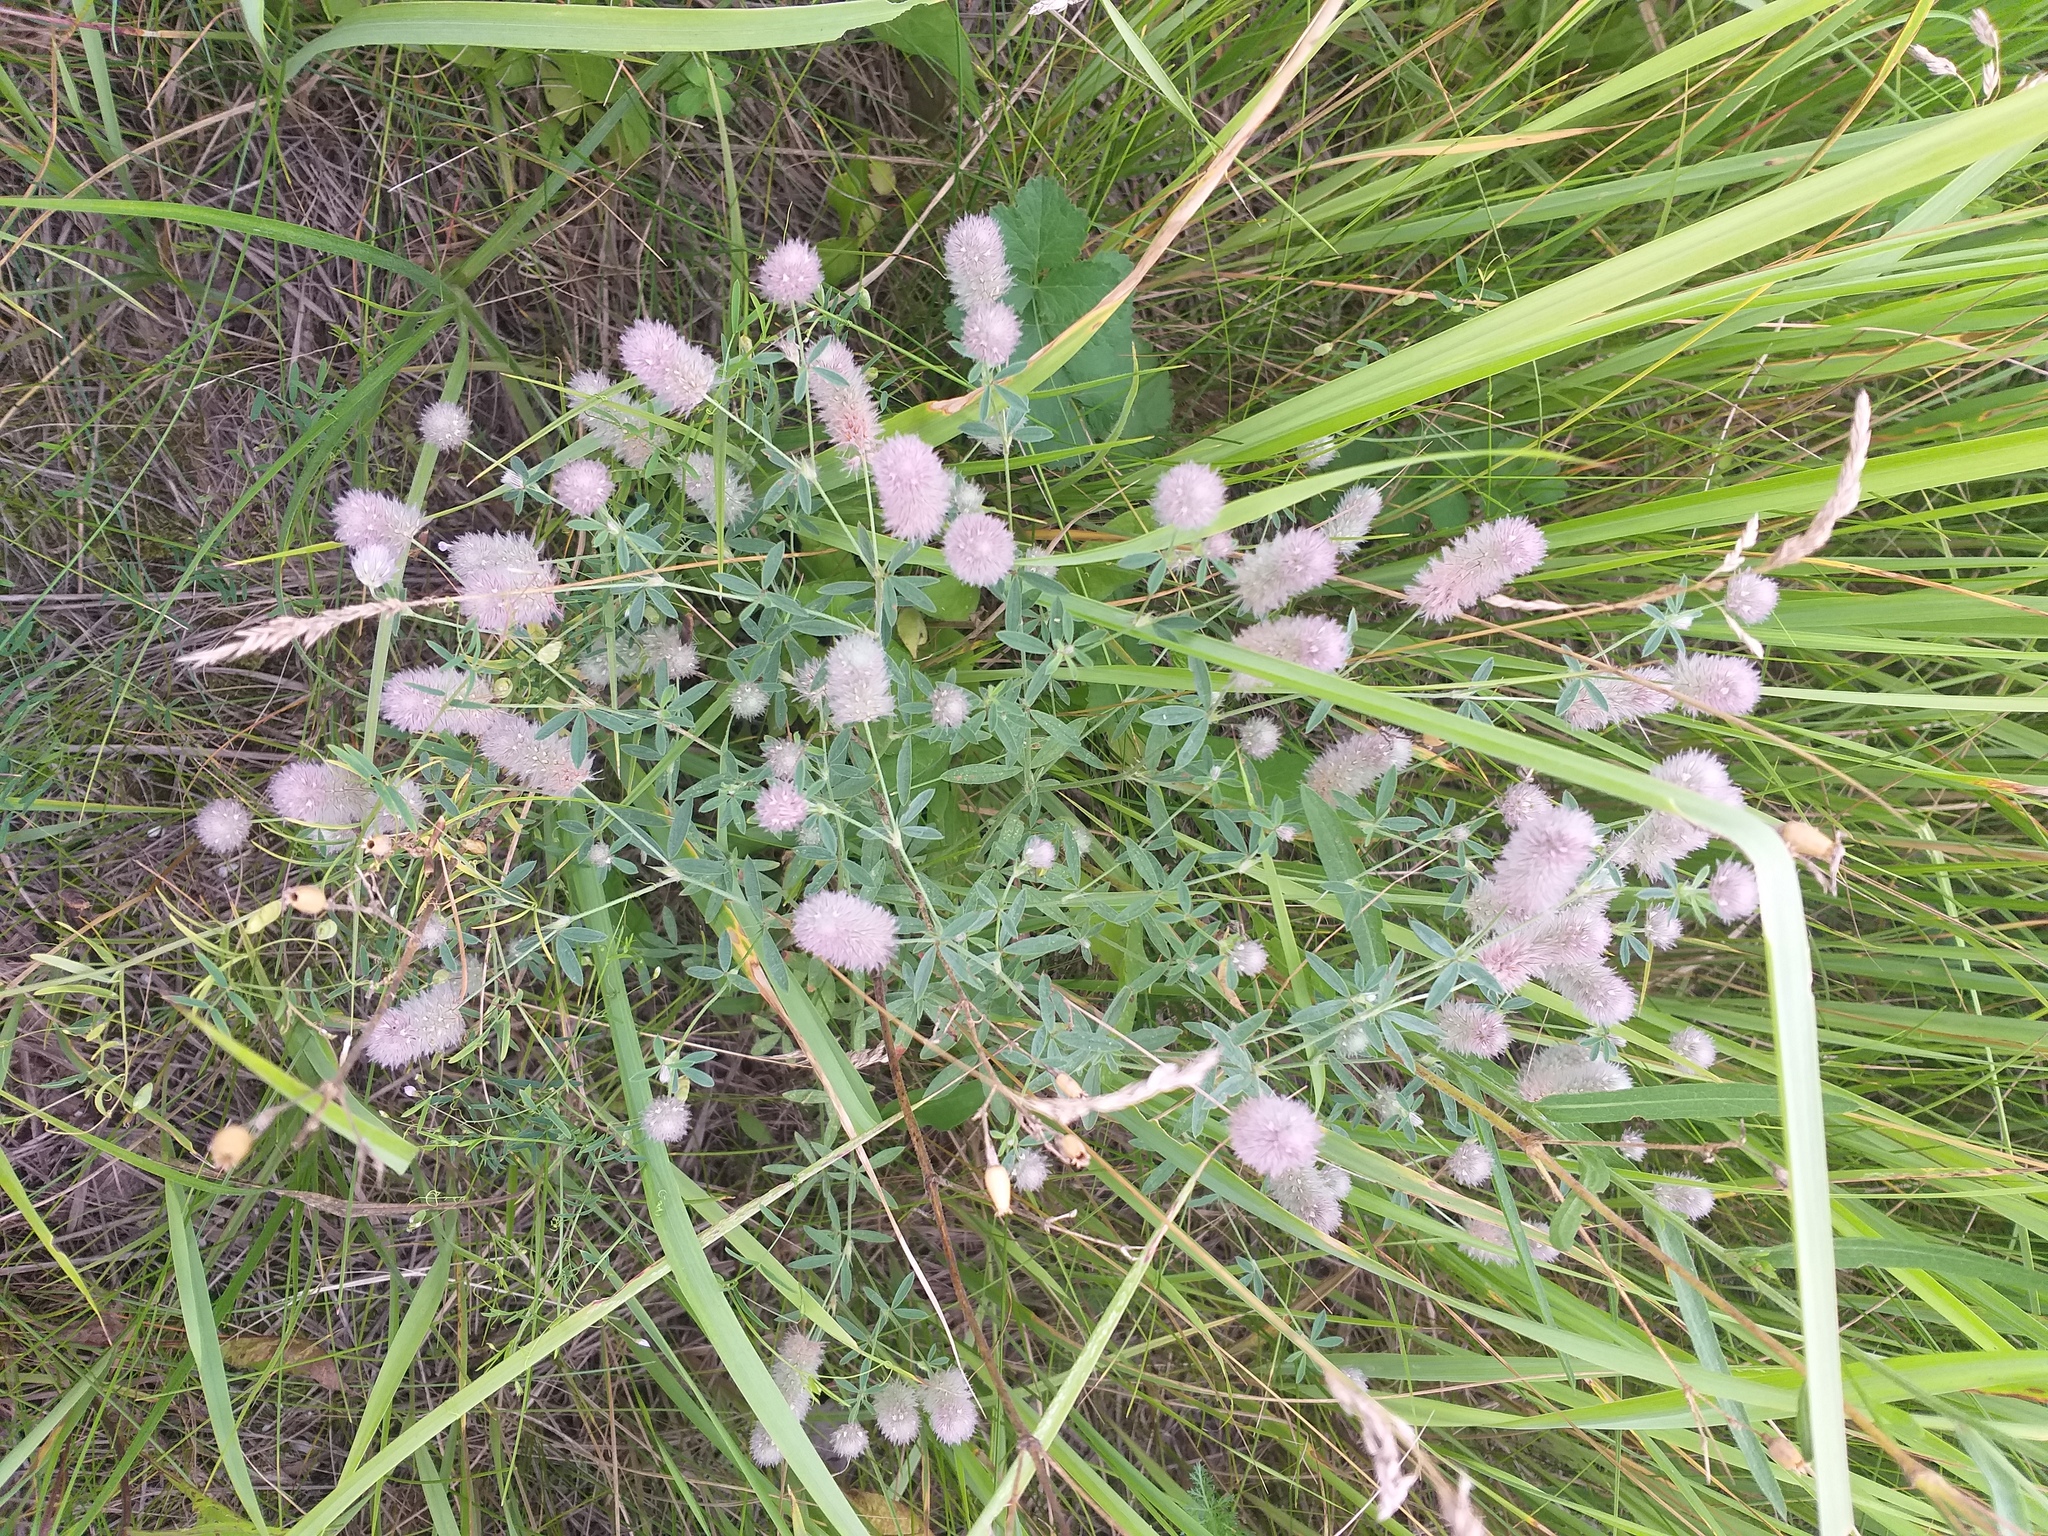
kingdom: Plantae
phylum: Tracheophyta
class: Magnoliopsida
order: Fabales
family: Fabaceae
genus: Trifolium
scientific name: Trifolium arvense
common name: Hare's-foot clover
